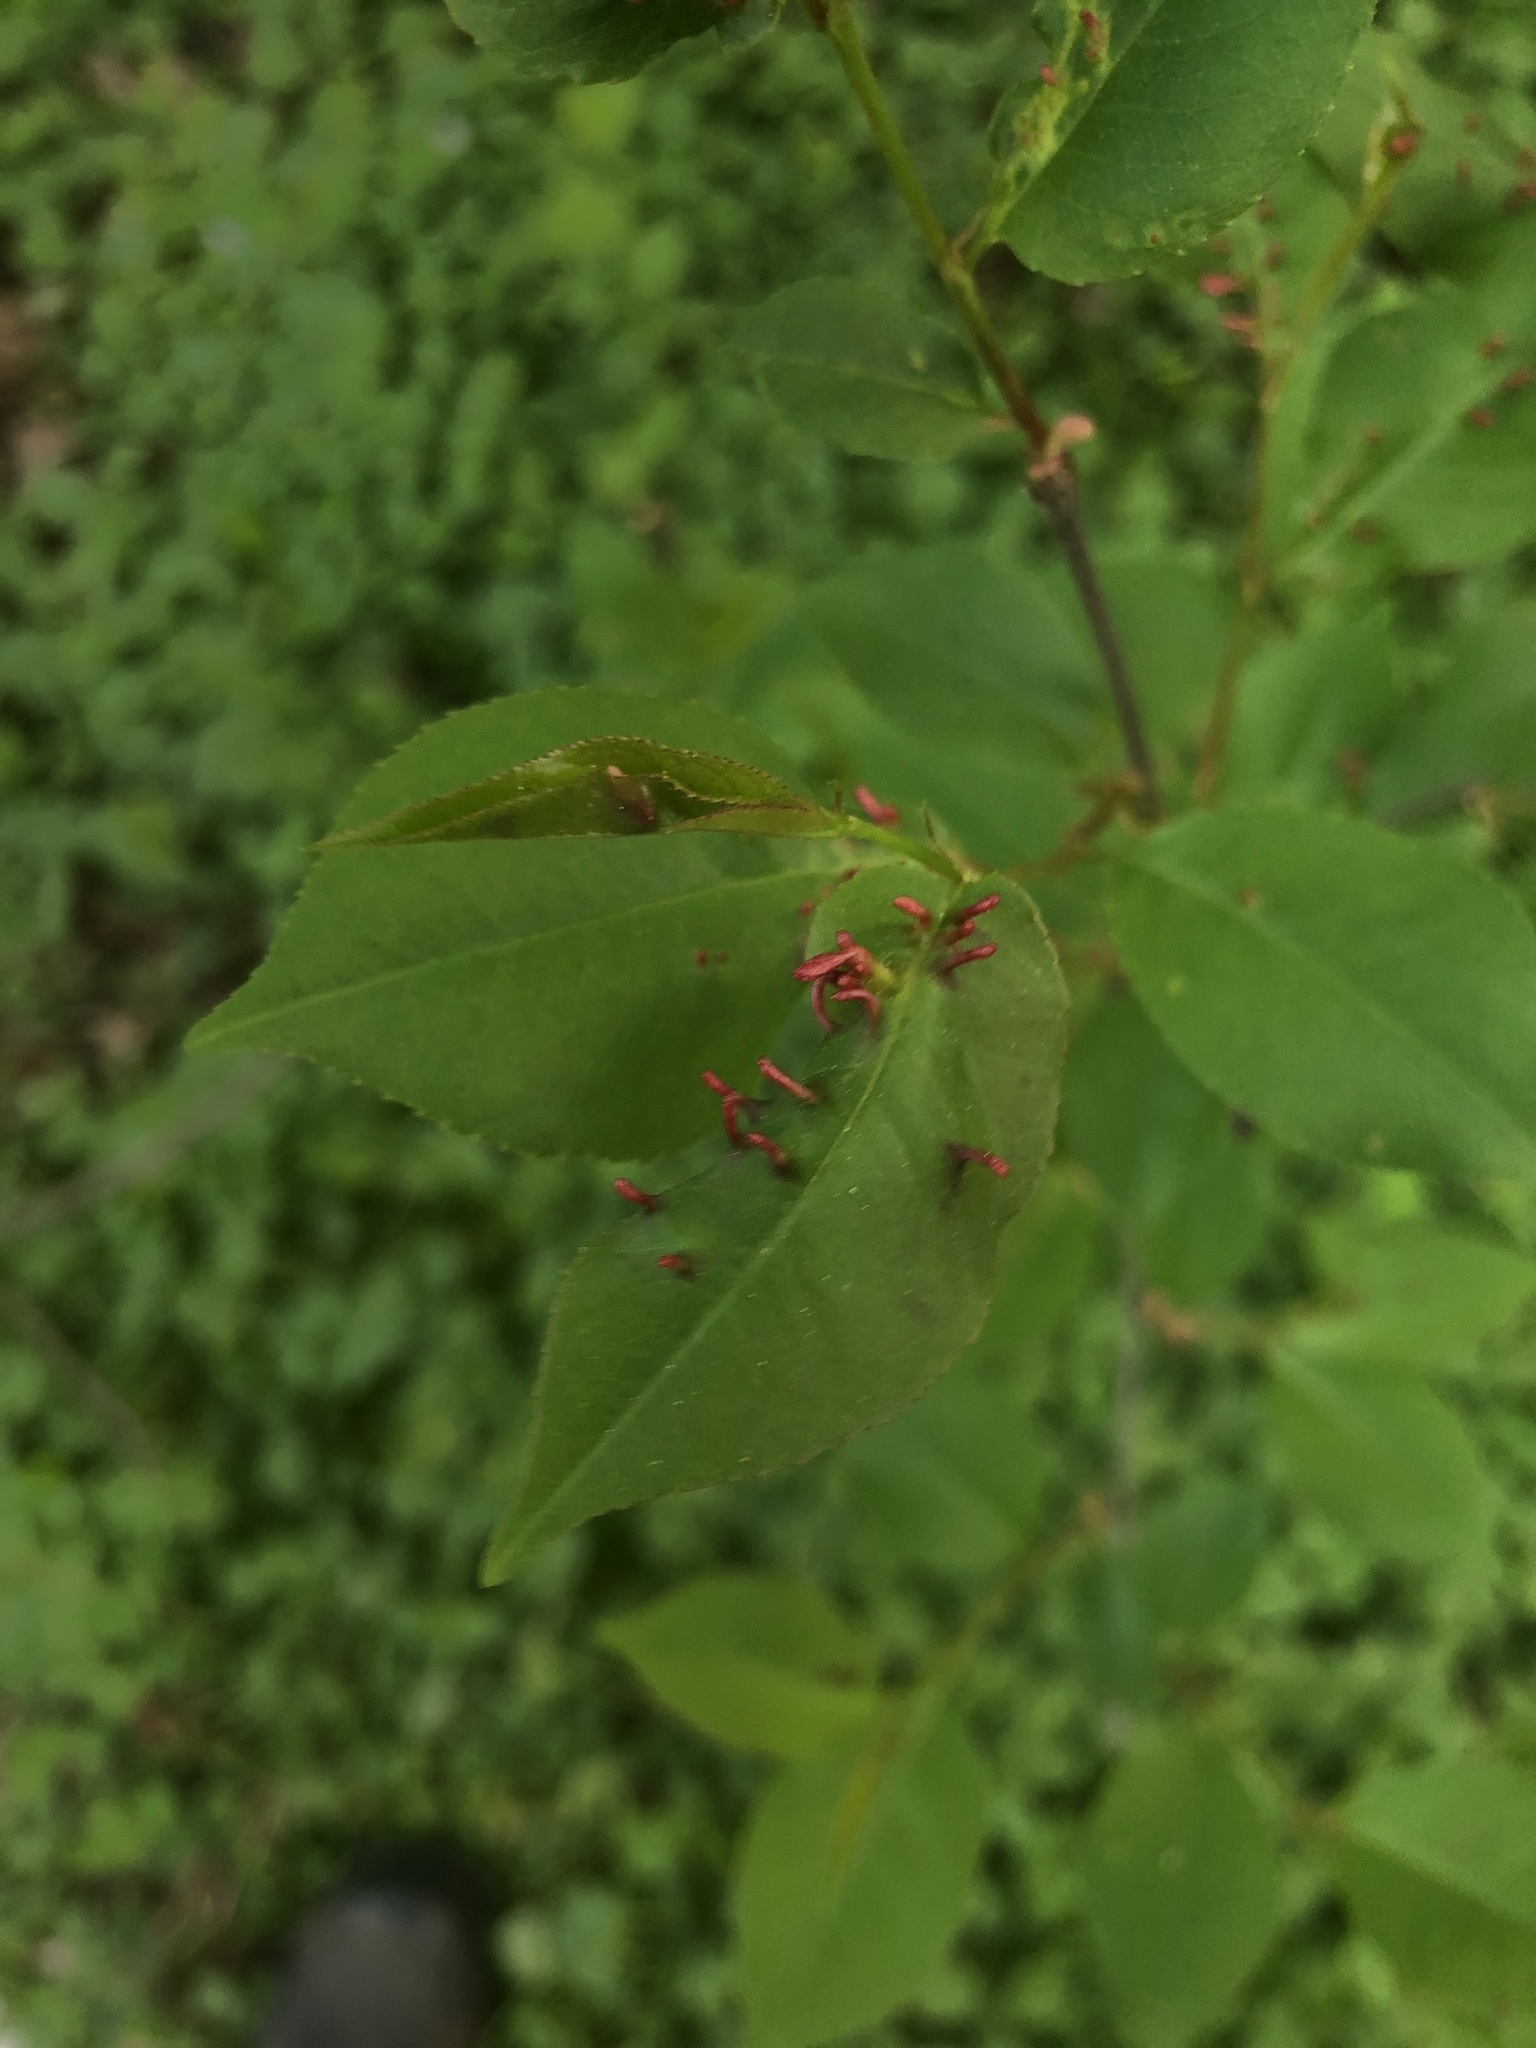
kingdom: Animalia
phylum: Arthropoda
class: Arachnida
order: Trombidiformes
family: Eriophyidae
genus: Eriophyes
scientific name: Eriophyes
